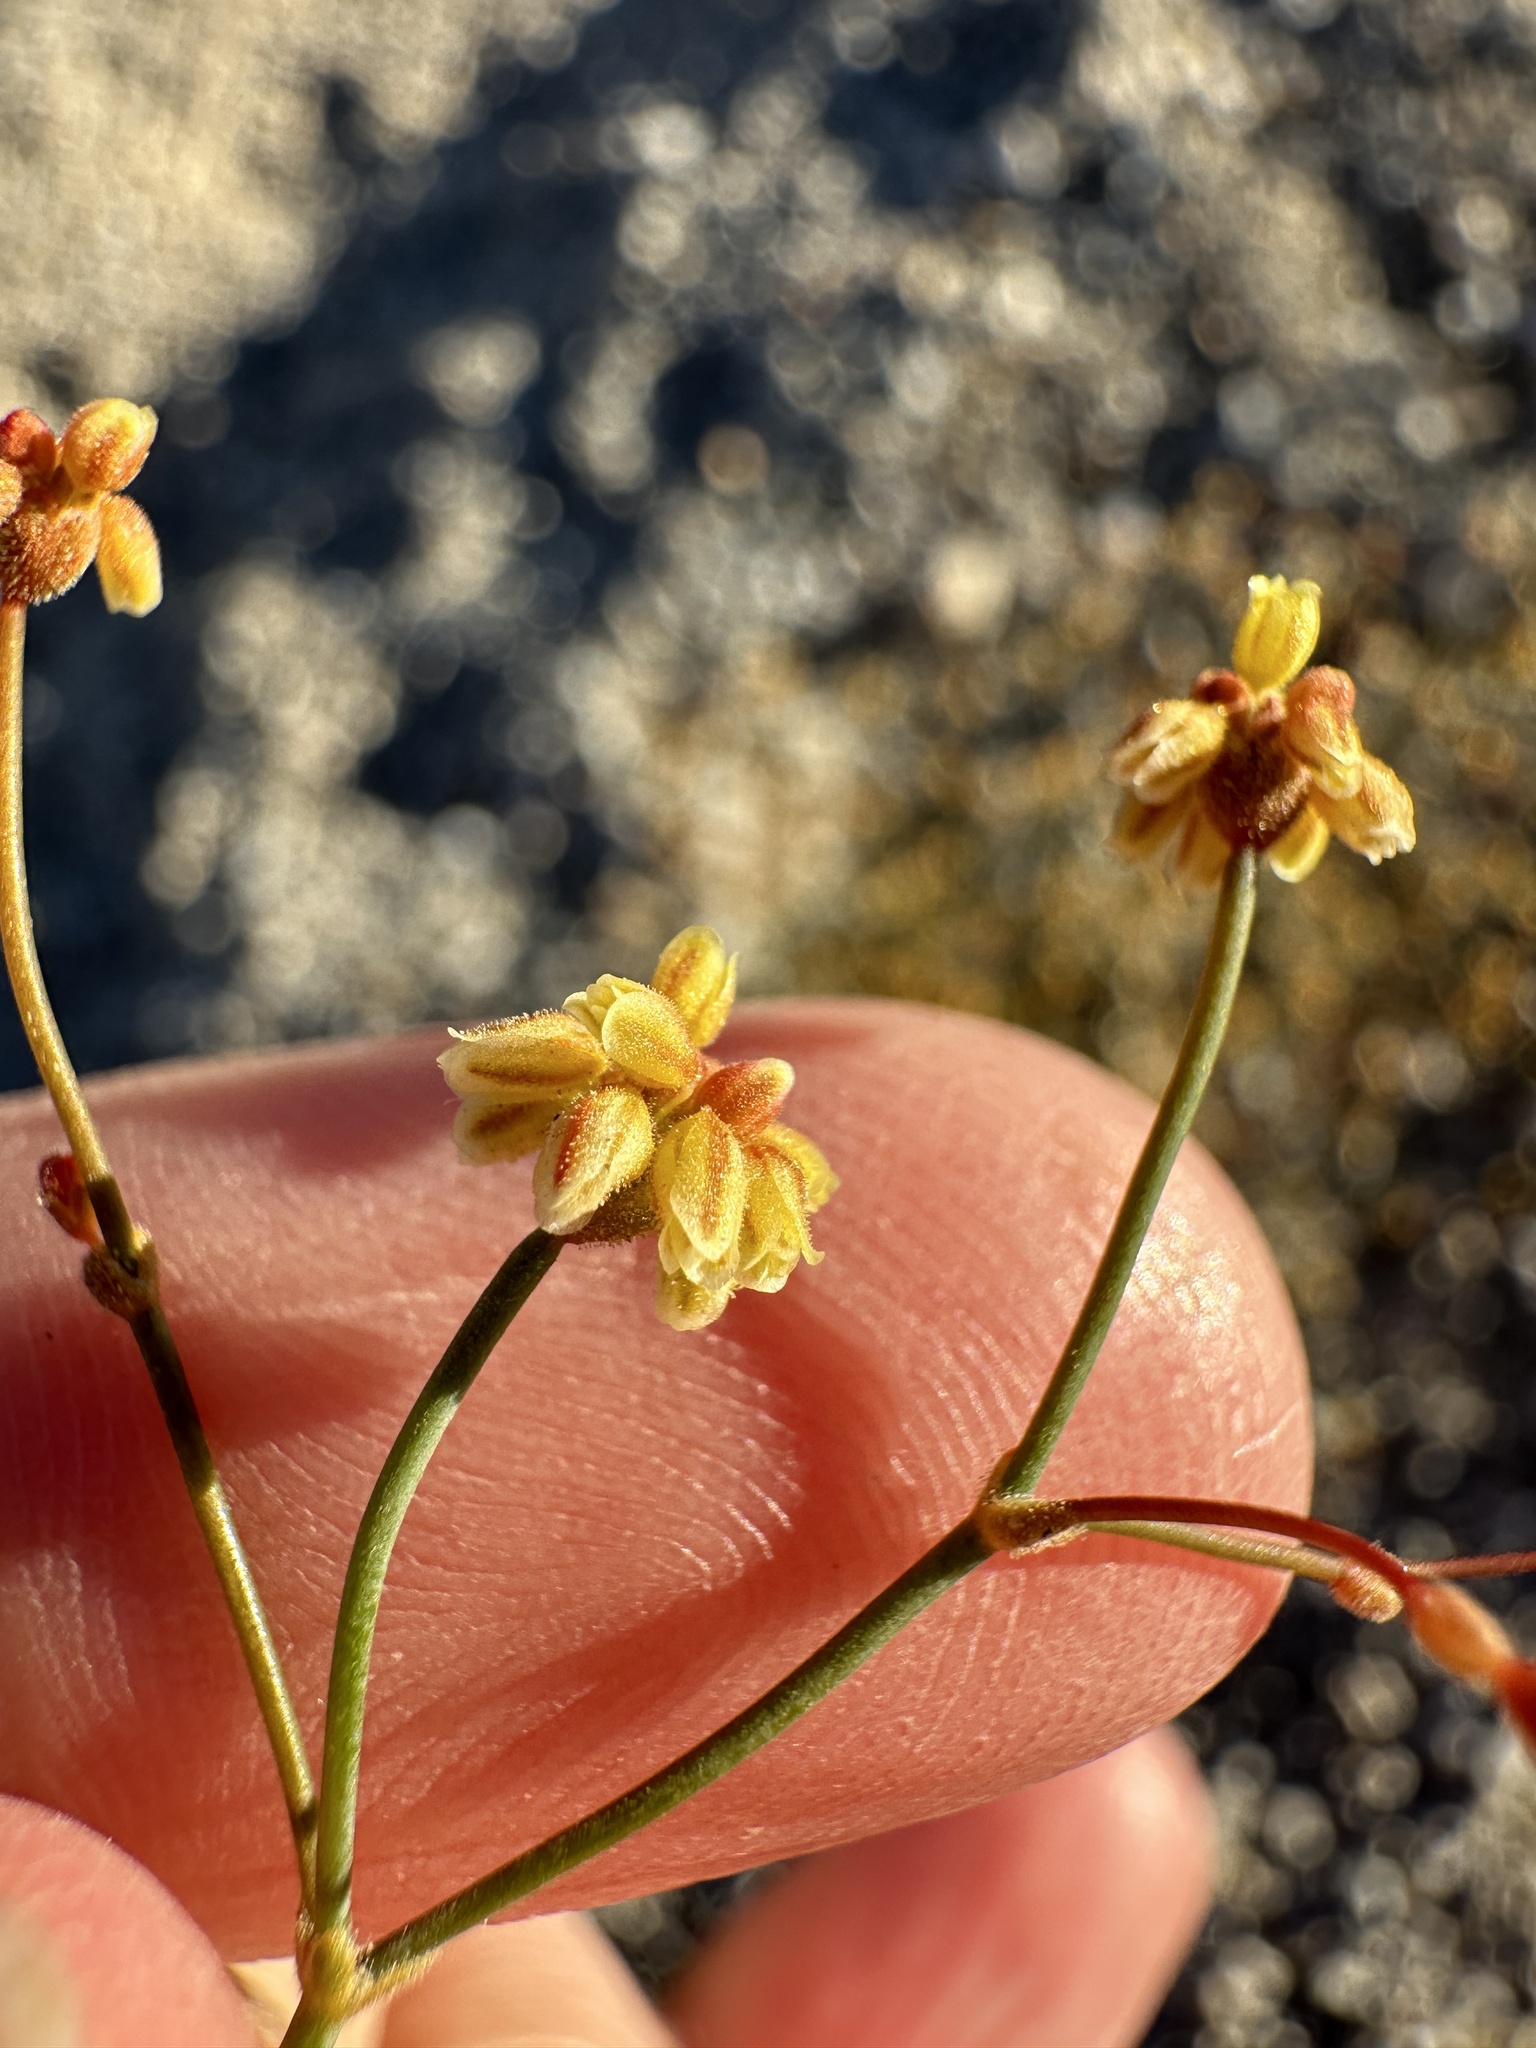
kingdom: Plantae
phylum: Tracheophyta
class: Magnoliopsida
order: Caryophyllales
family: Polygonaceae
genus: Eriogonum
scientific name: Eriogonum pusillum
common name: Yellow turbans
